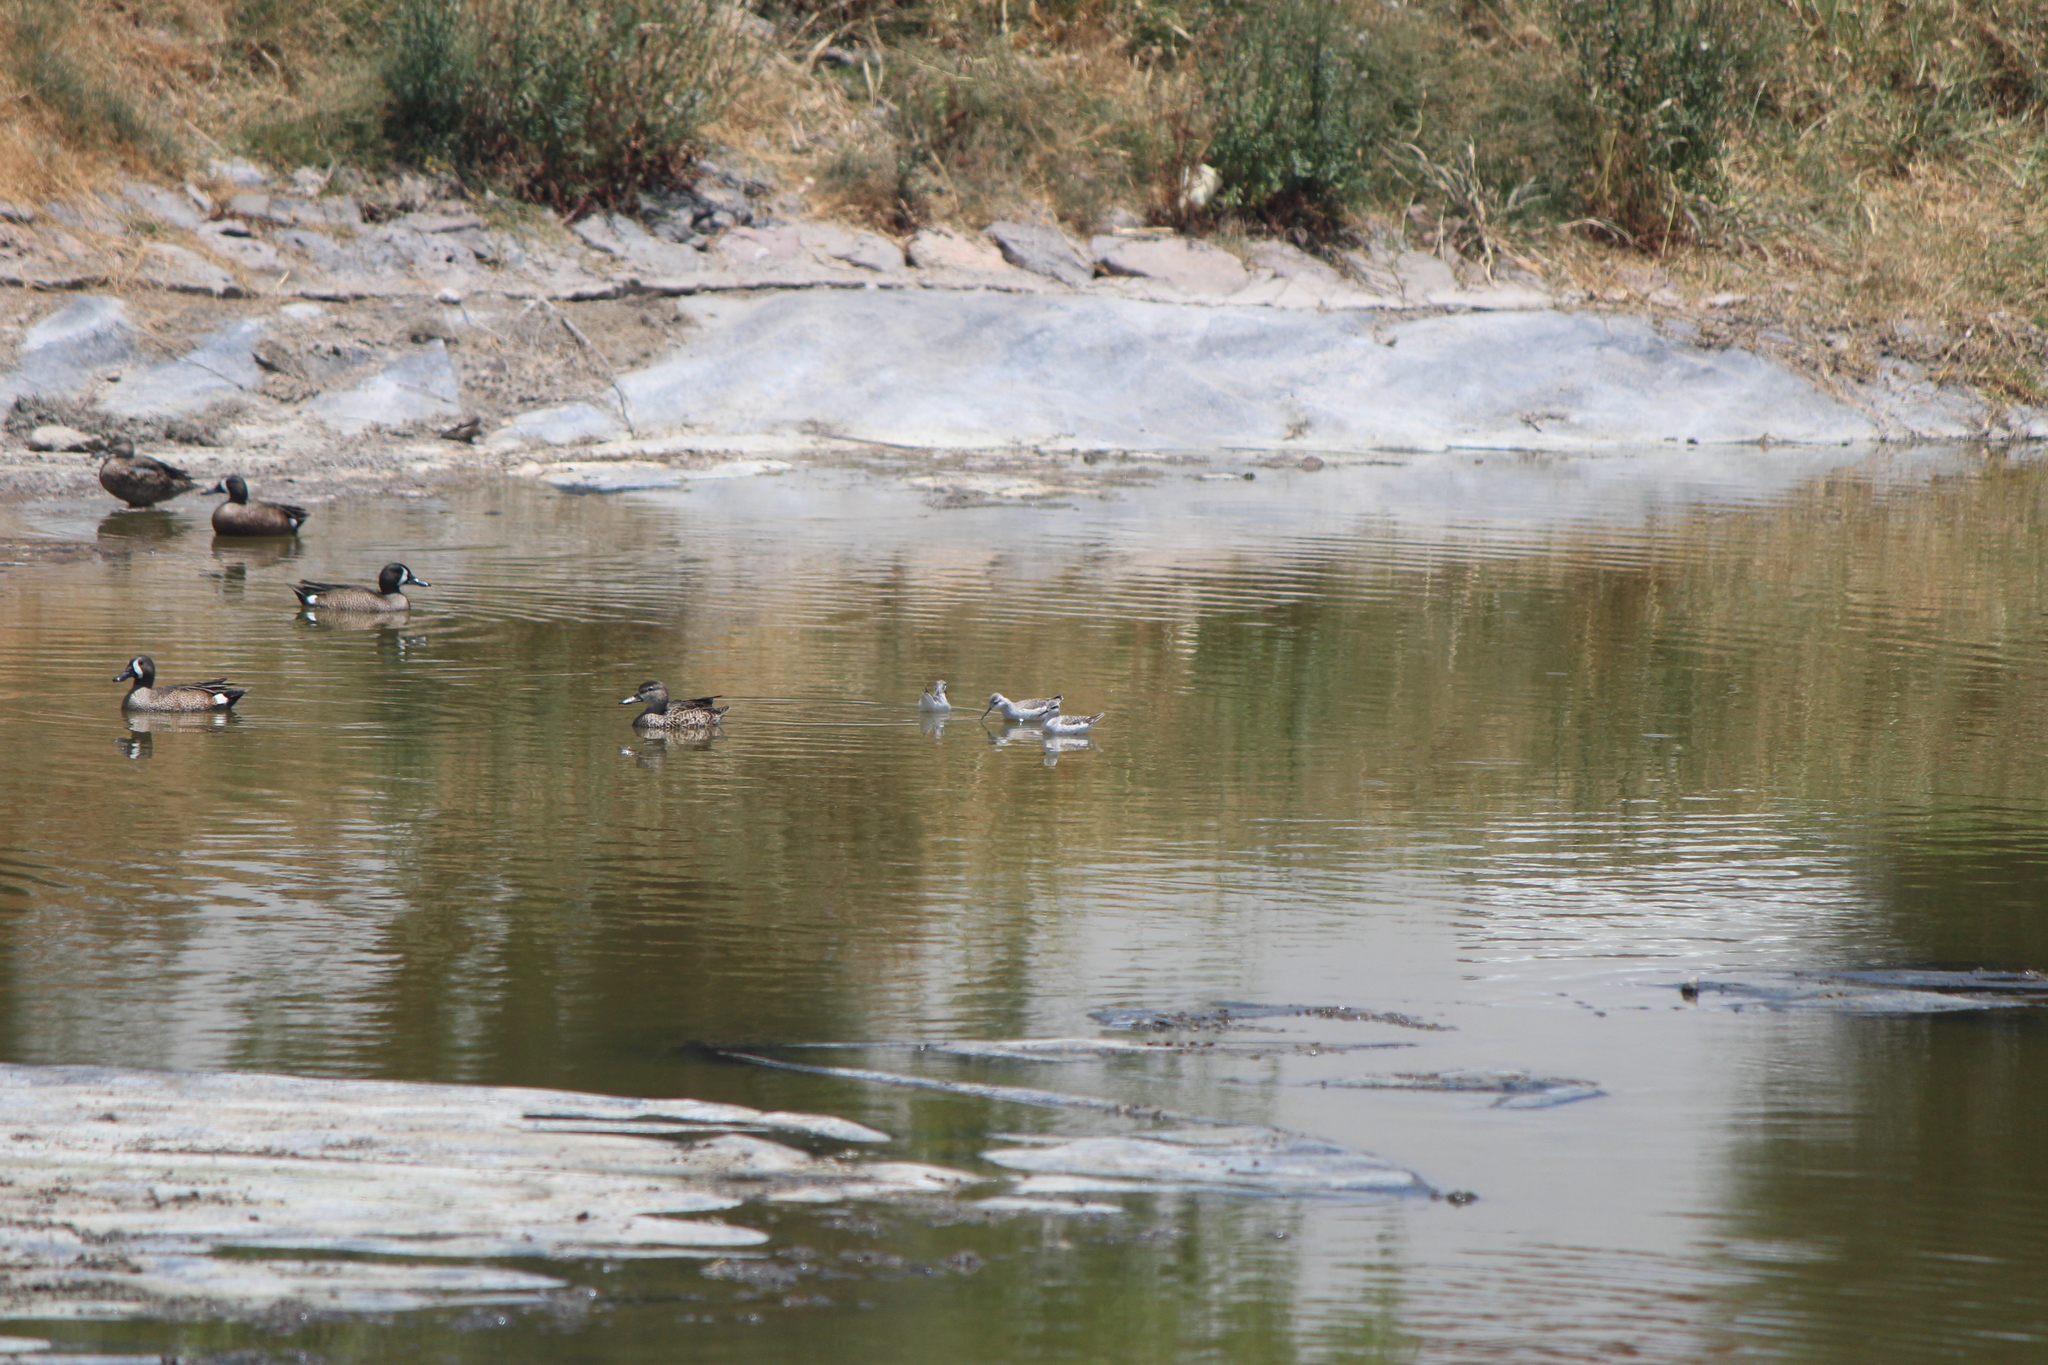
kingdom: Animalia
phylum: Chordata
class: Aves
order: Charadriiformes
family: Scolopacidae
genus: Phalaropus
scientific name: Phalaropus tricolor
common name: Wilson's phalarope
